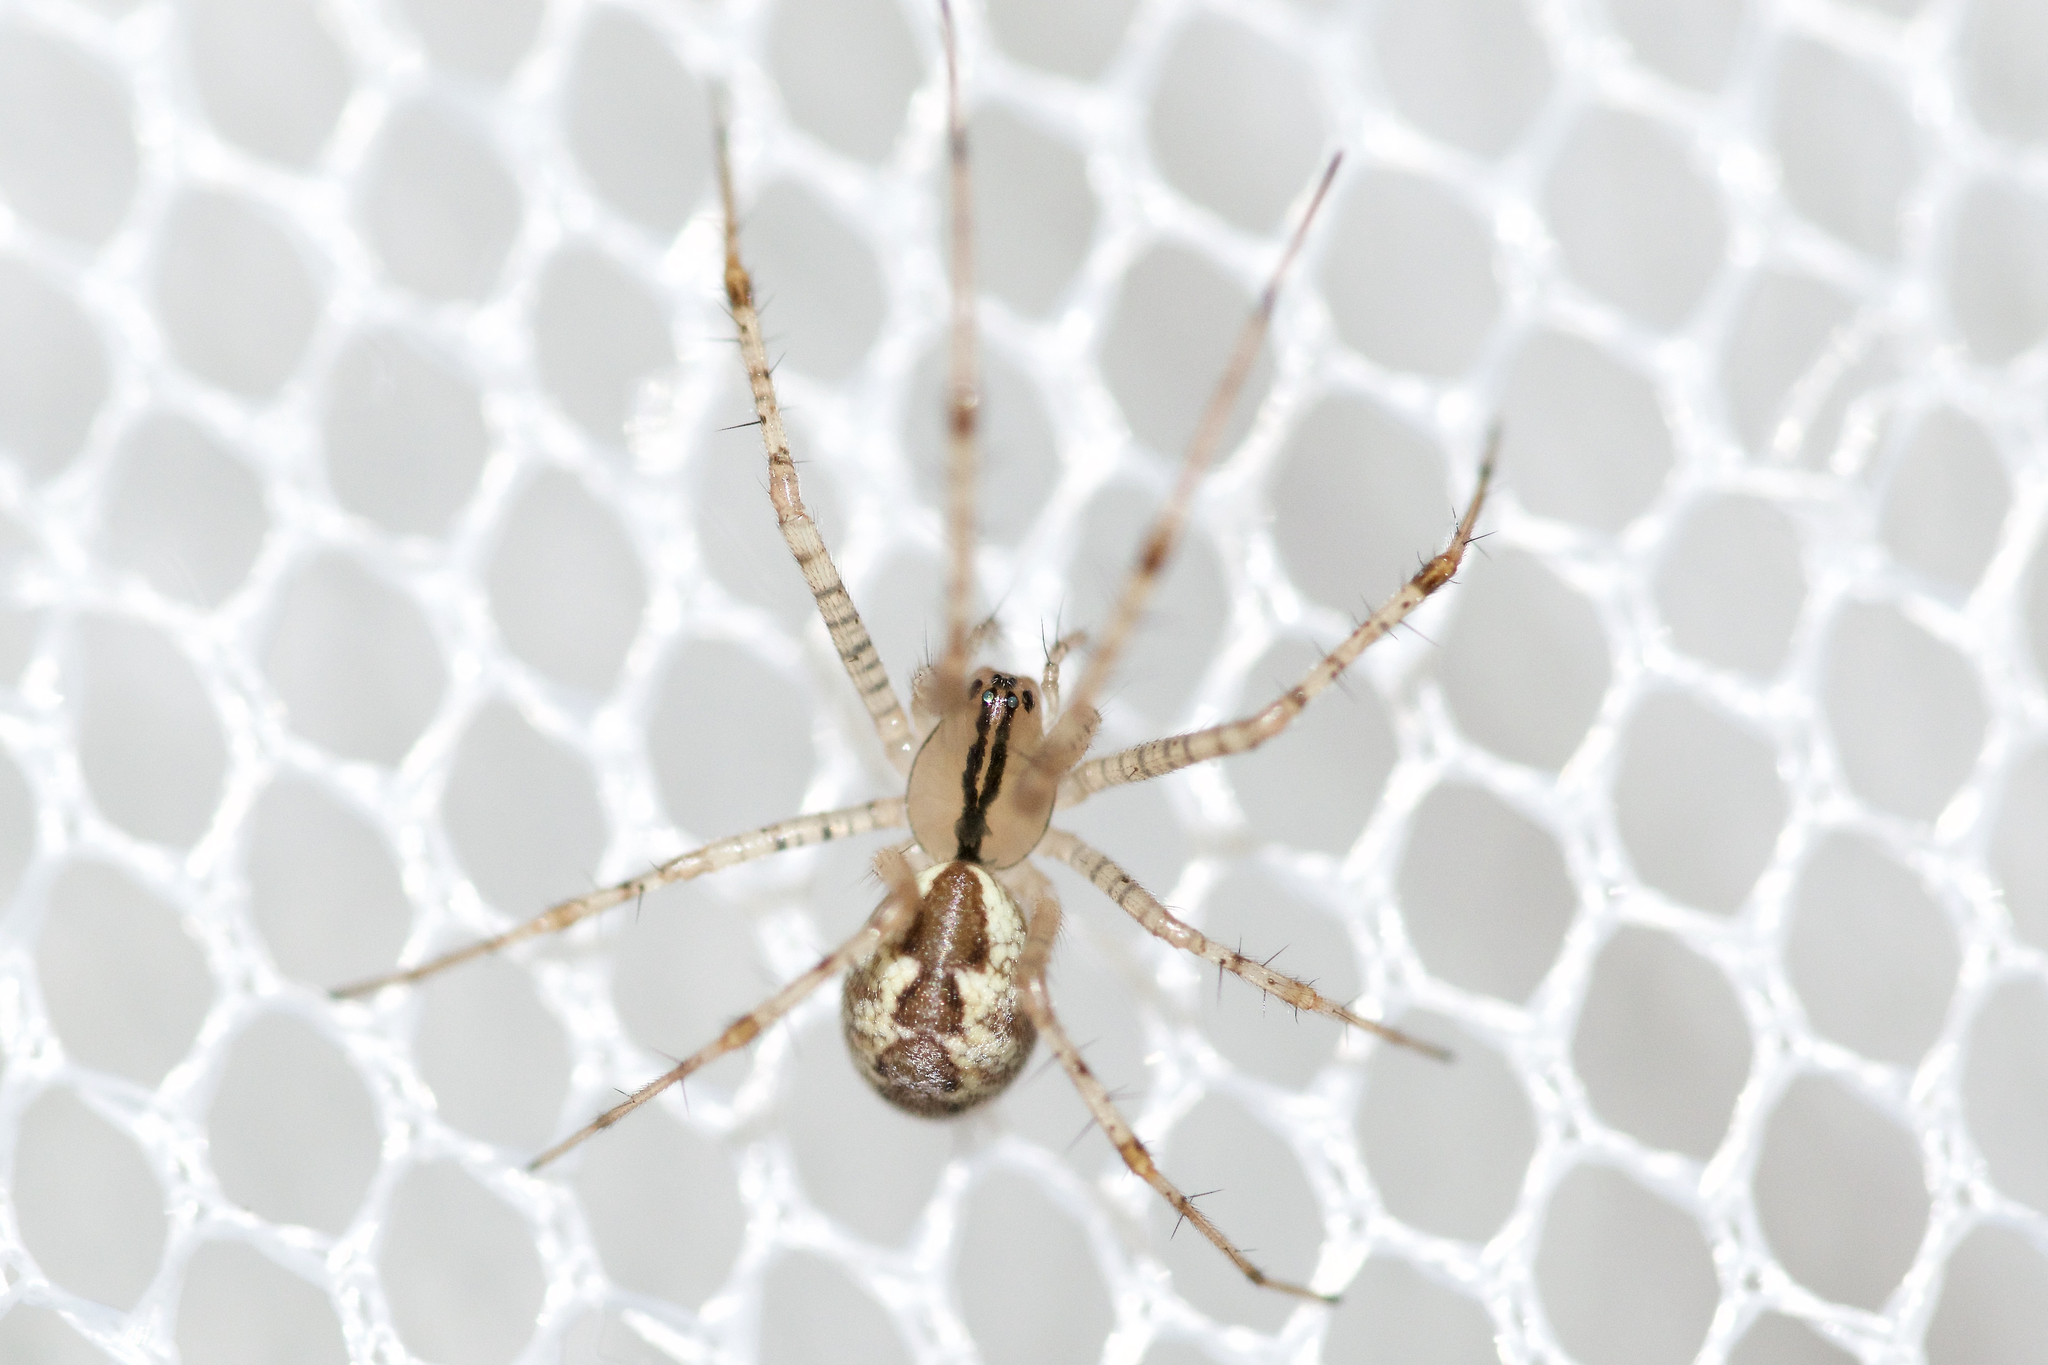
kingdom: Animalia
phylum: Arthropoda
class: Arachnida
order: Araneae
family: Linyphiidae
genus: Pityohyphantes
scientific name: Pityohyphantes costatus
